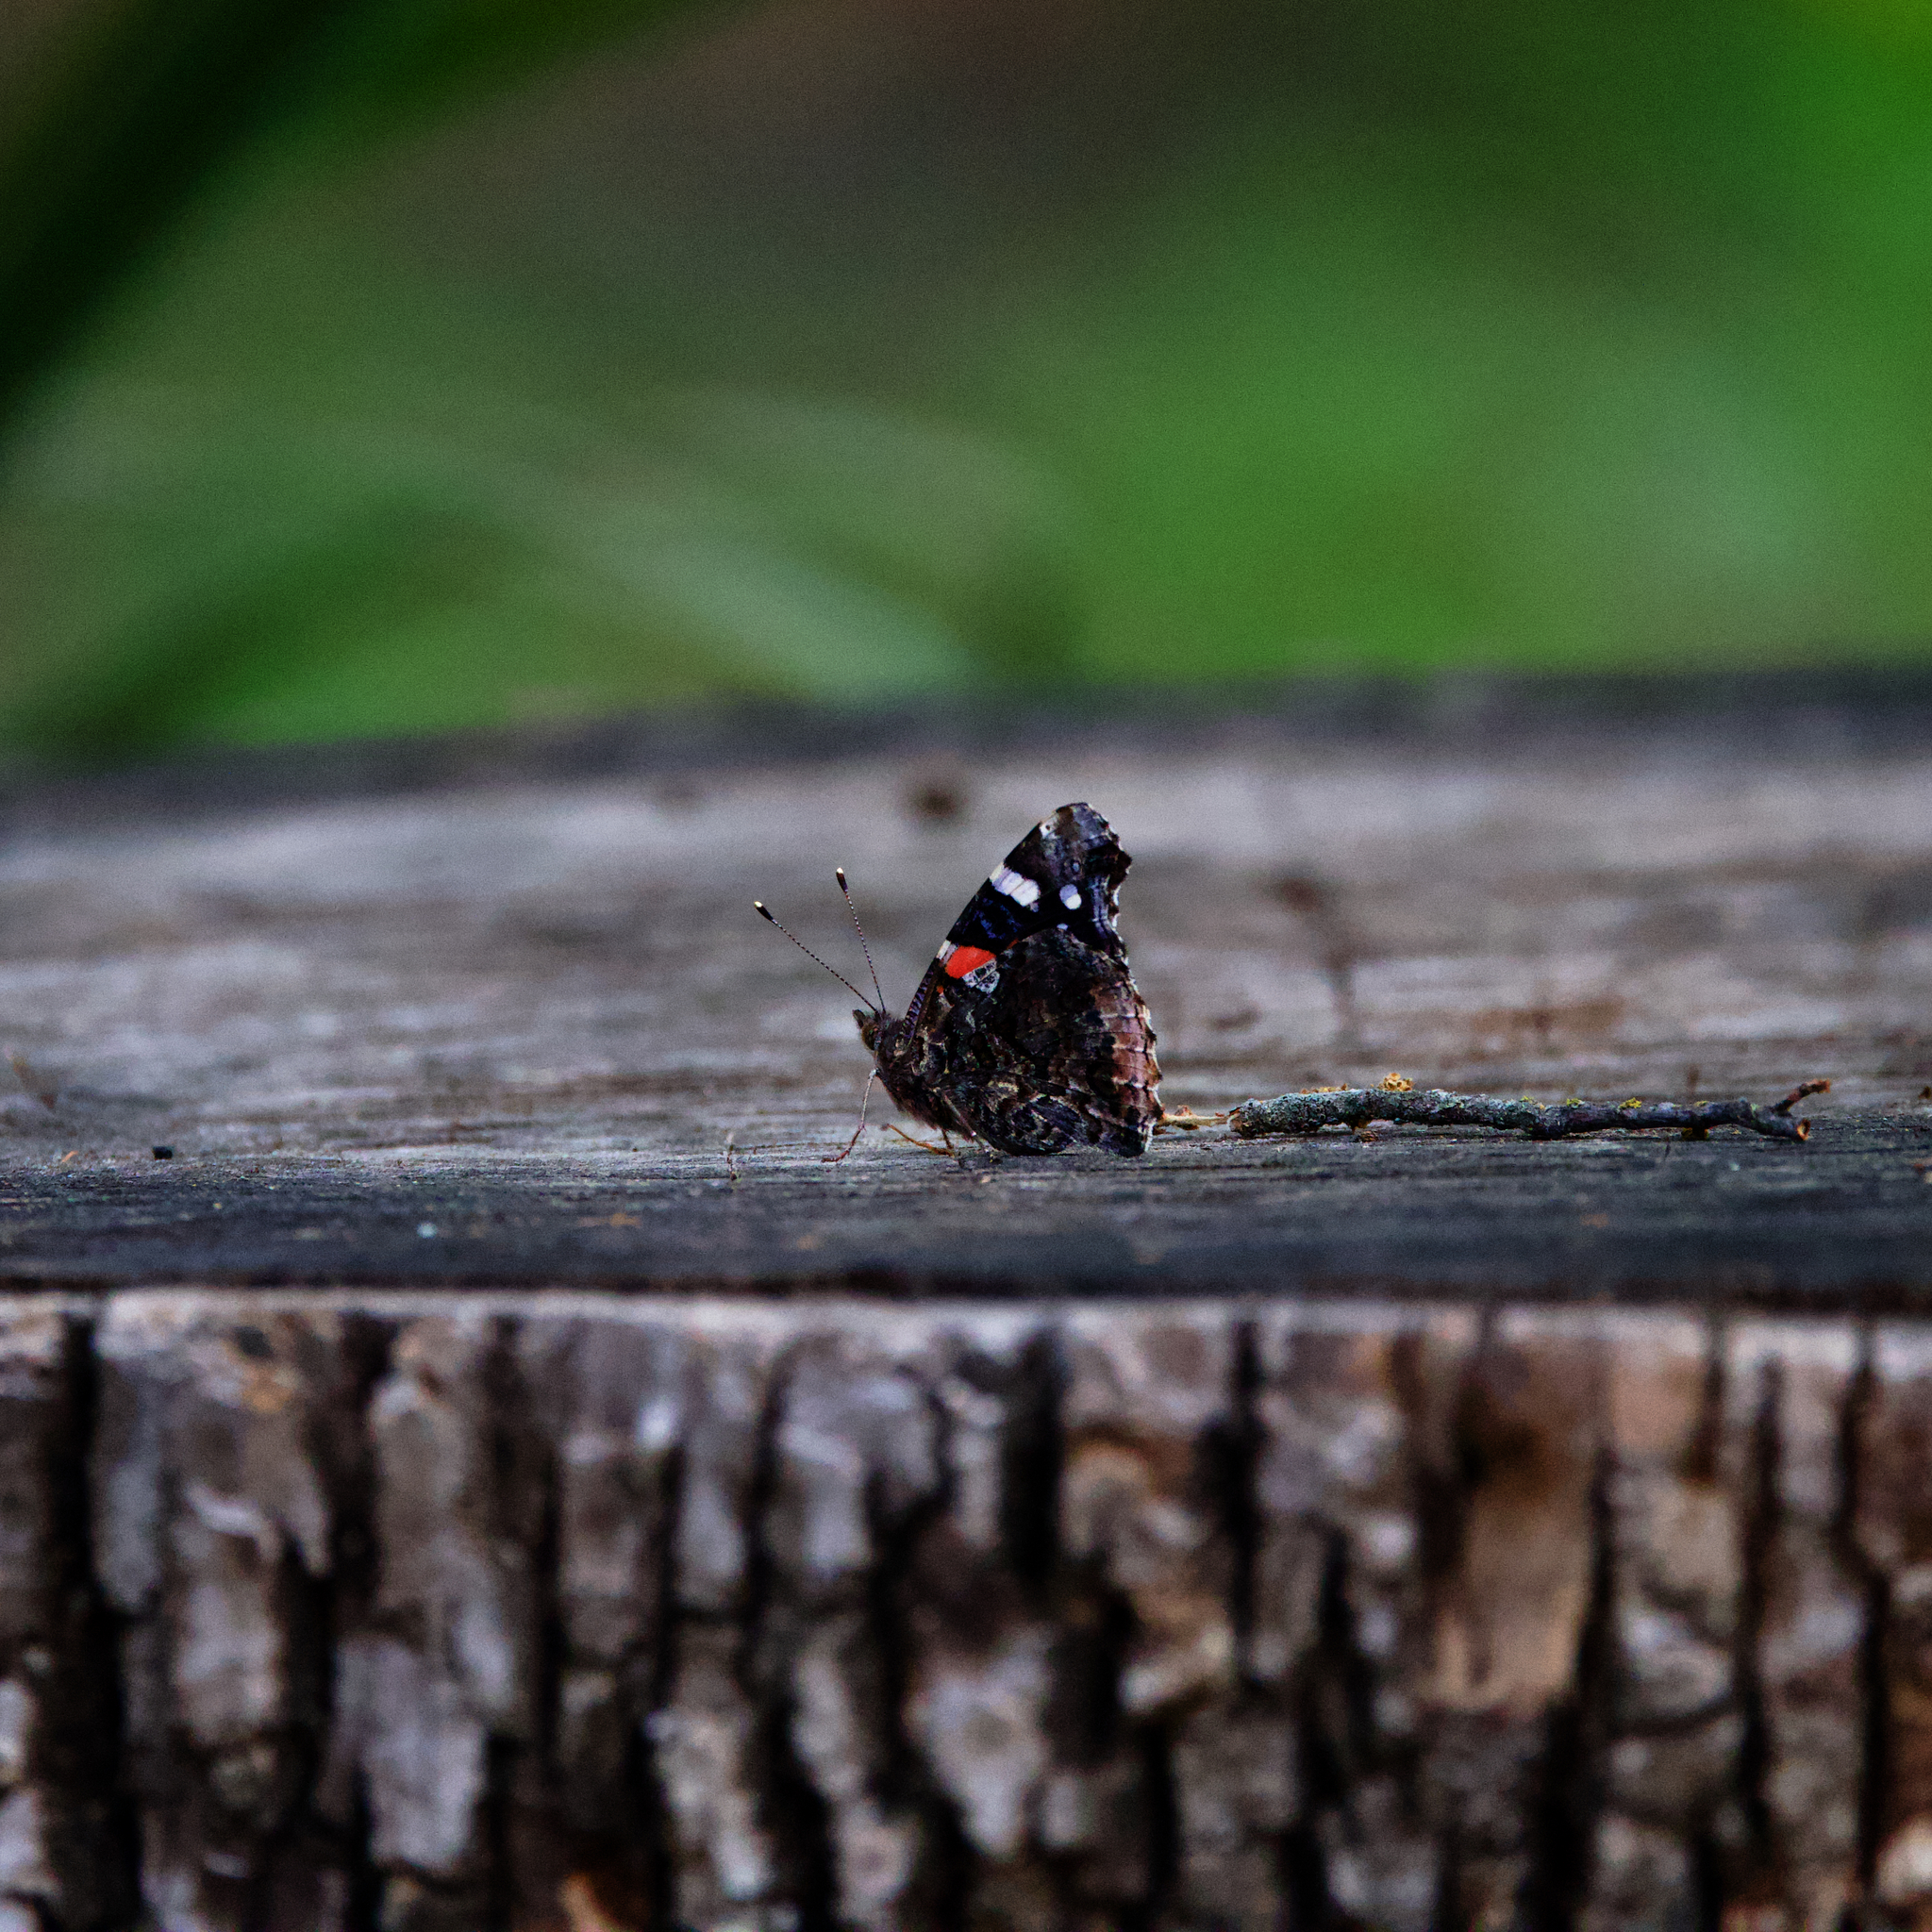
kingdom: Animalia
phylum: Arthropoda
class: Insecta
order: Lepidoptera
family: Nymphalidae
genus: Vanessa
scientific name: Vanessa atalanta
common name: Red admiral
